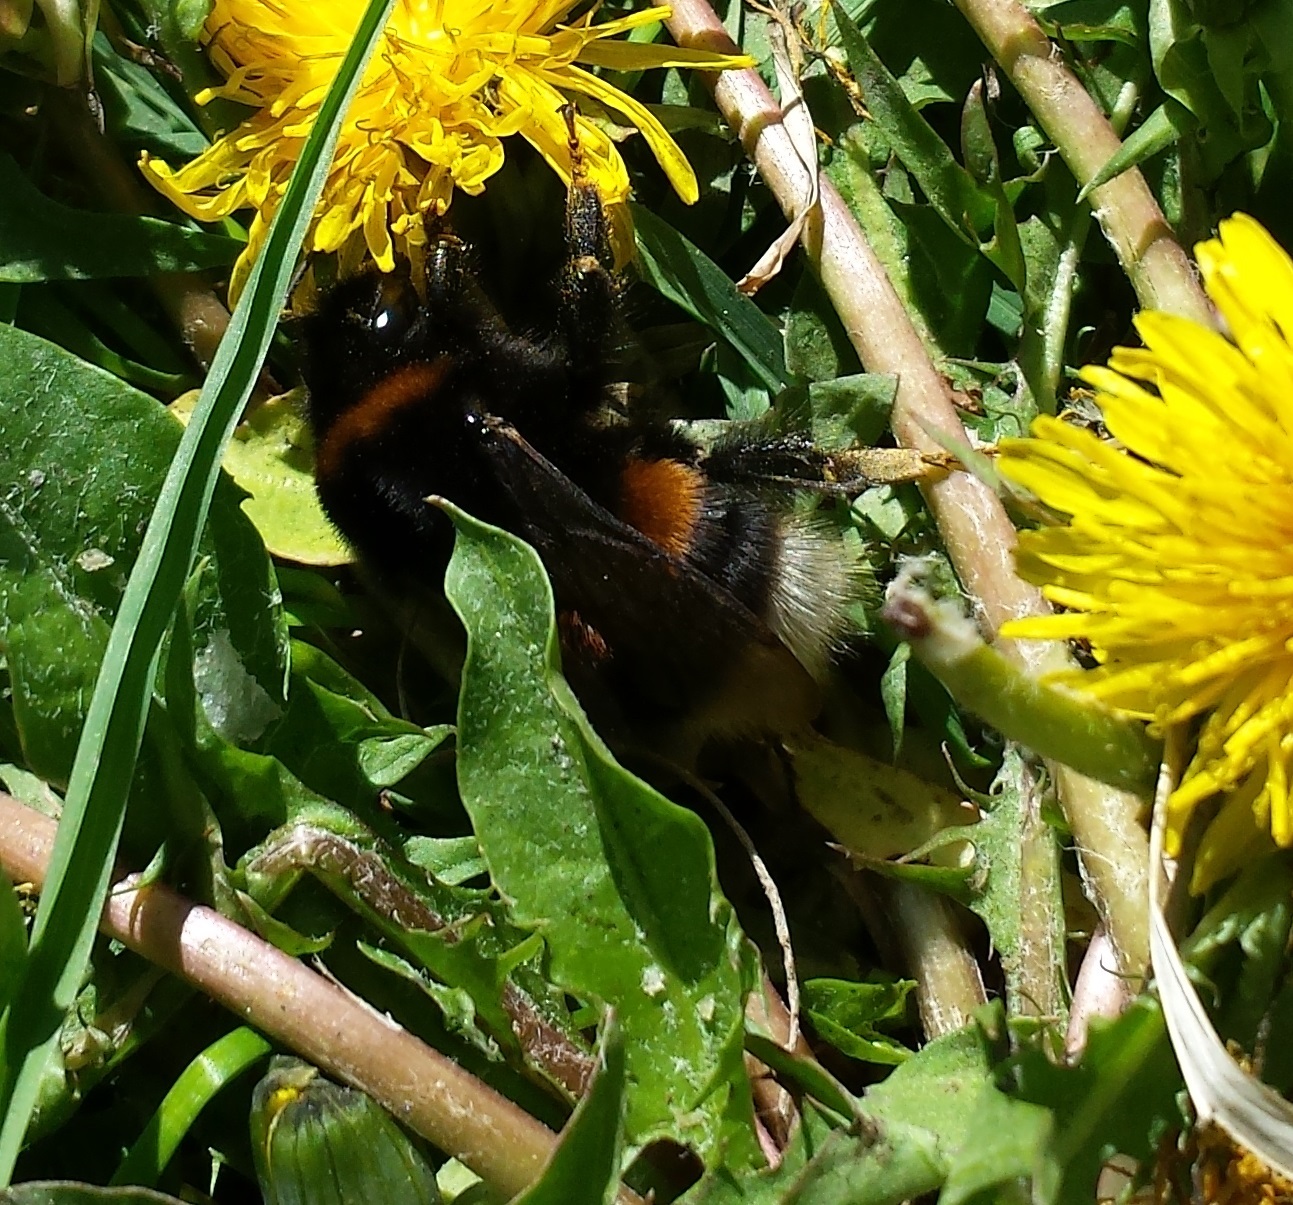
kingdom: Animalia
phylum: Arthropoda
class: Insecta
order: Hymenoptera
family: Apidae
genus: Bombus
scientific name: Bombus terrestris
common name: Buff-tailed bumblebee
